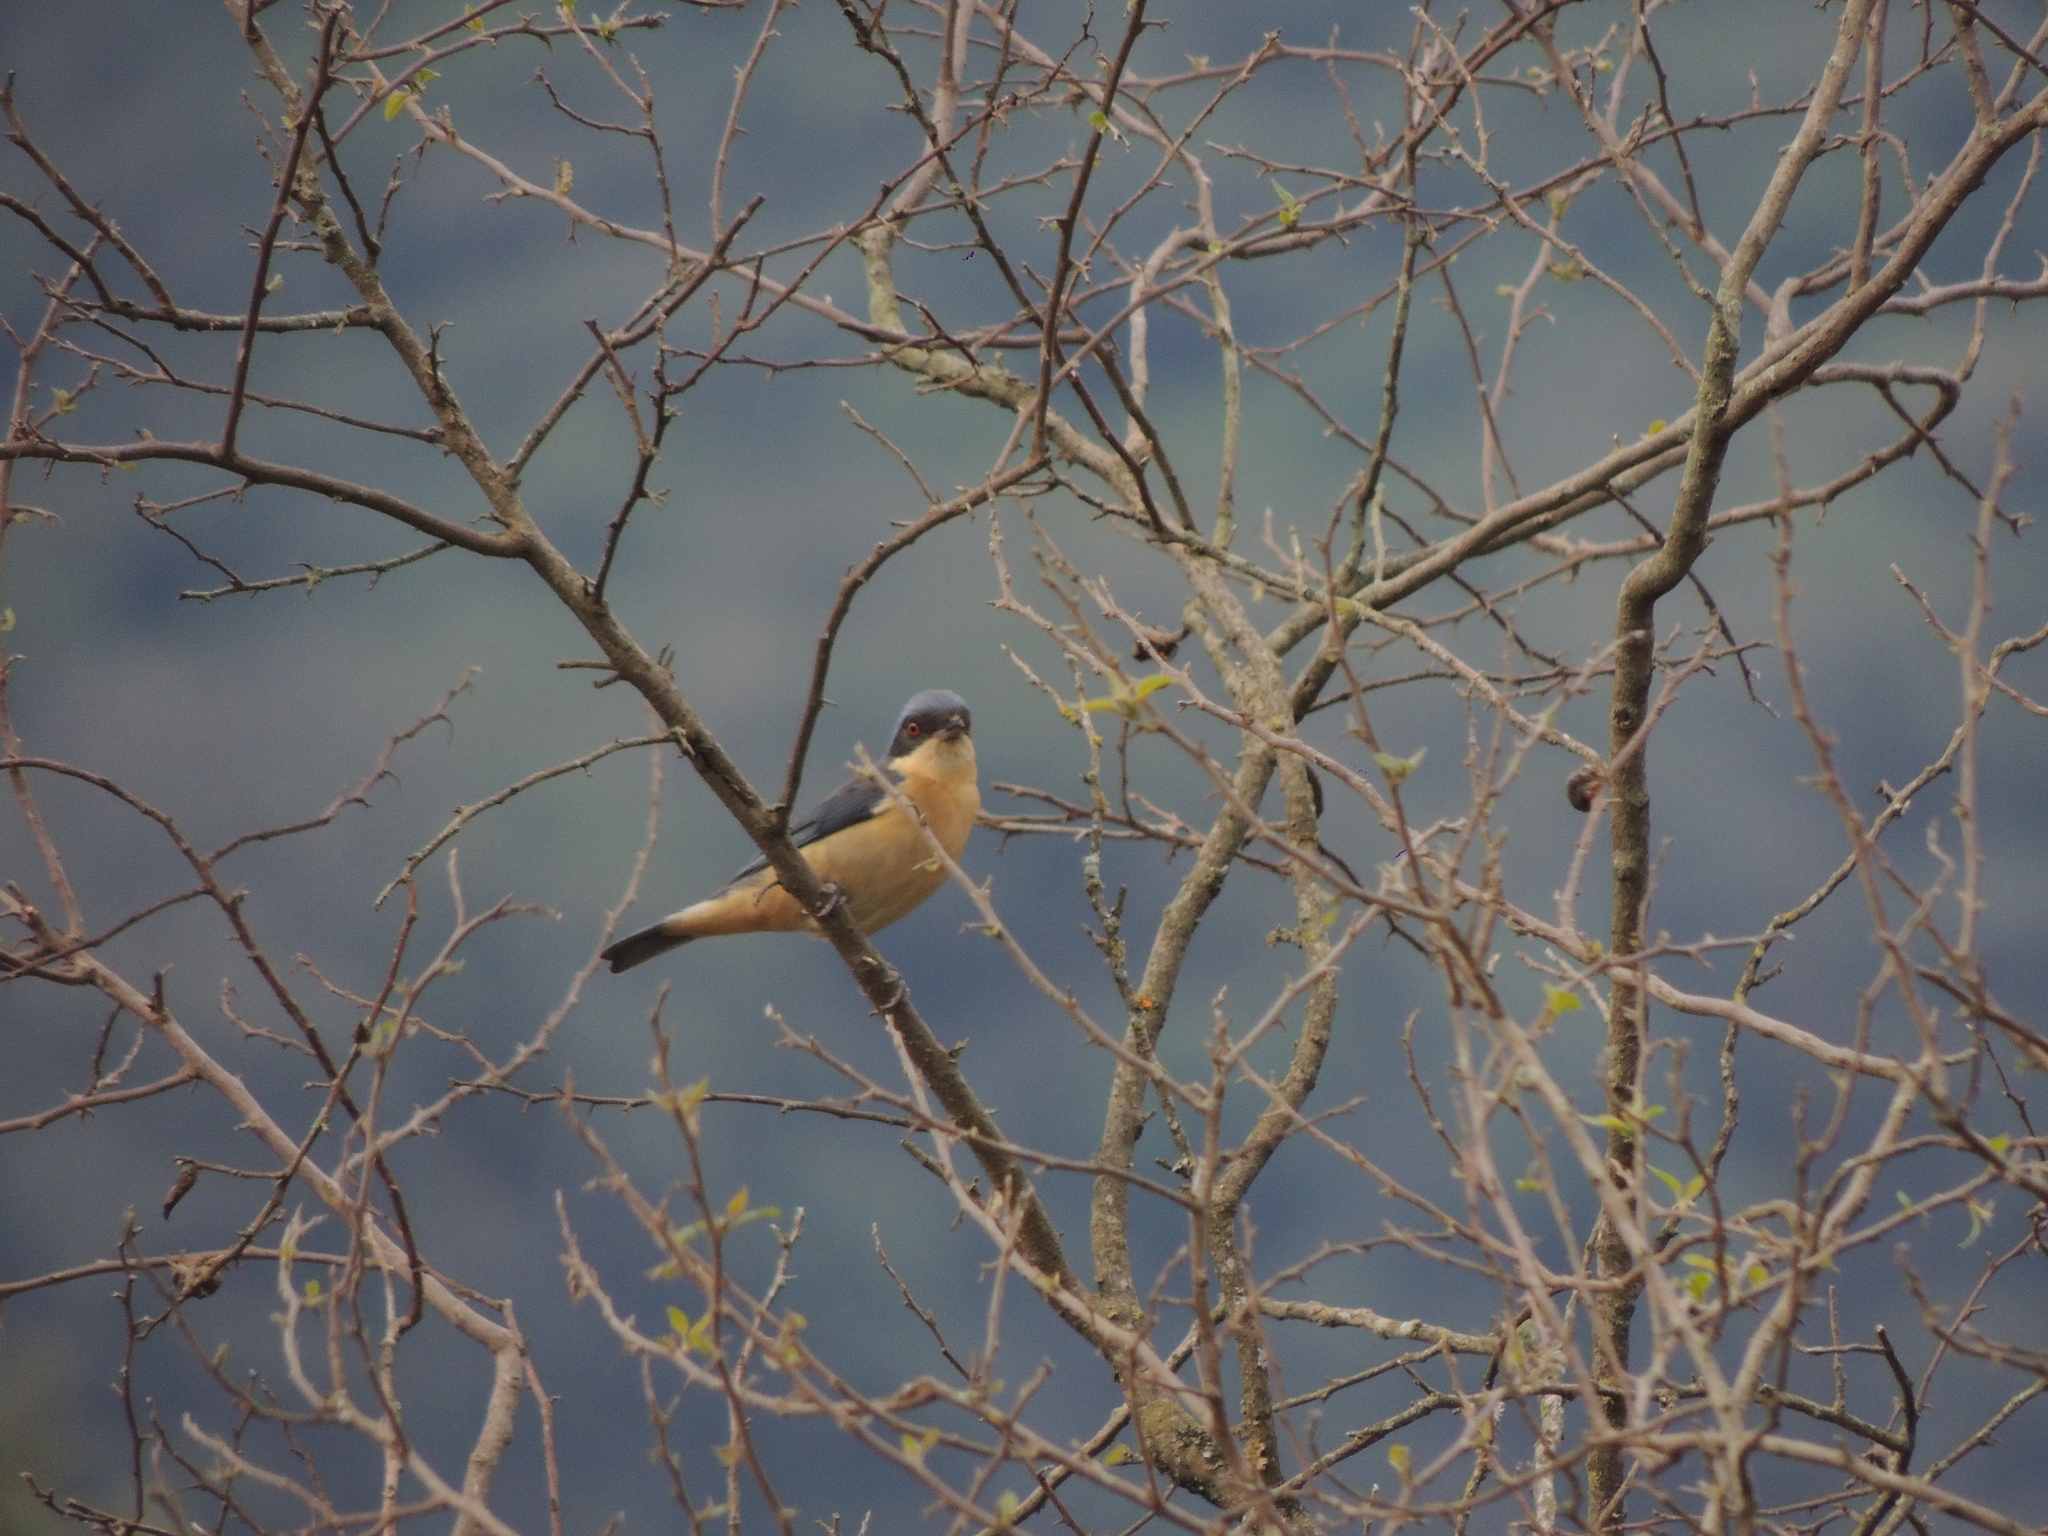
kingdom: Animalia
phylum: Chordata
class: Aves
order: Passeriformes
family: Thraupidae
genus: Pipraeidea
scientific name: Pipraeidea melanonota
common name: Fawn-breasted tanager
